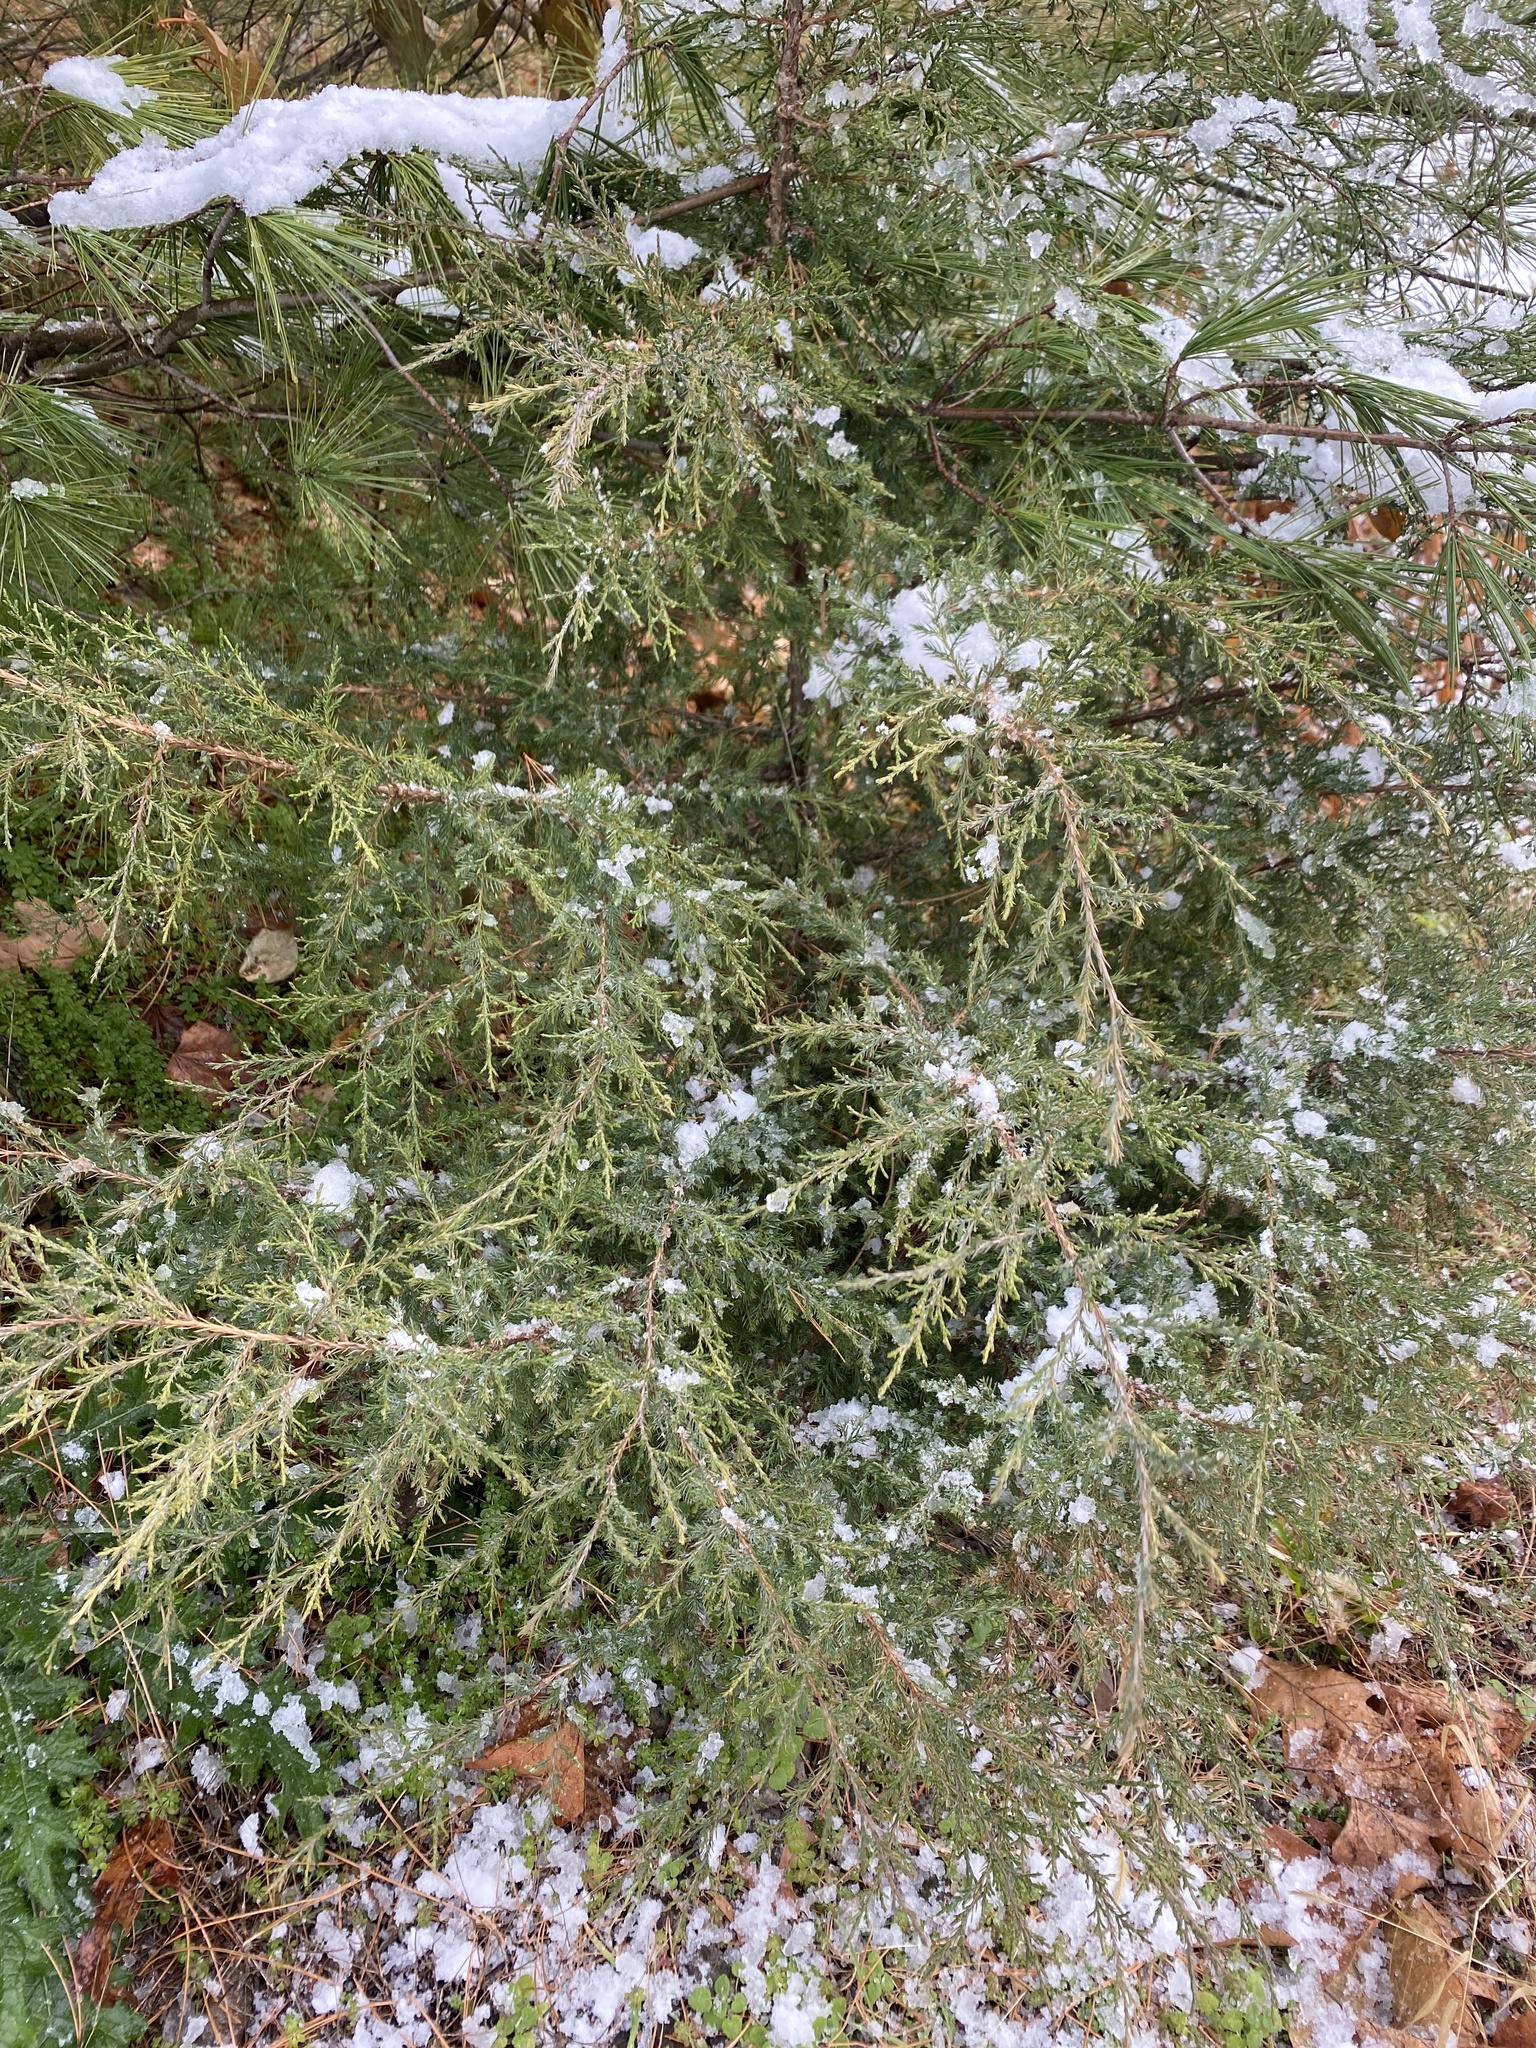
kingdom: Plantae
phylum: Tracheophyta
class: Pinopsida
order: Pinales
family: Cupressaceae
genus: Juniperus
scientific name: Juniperus virginiana
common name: Red juniper
